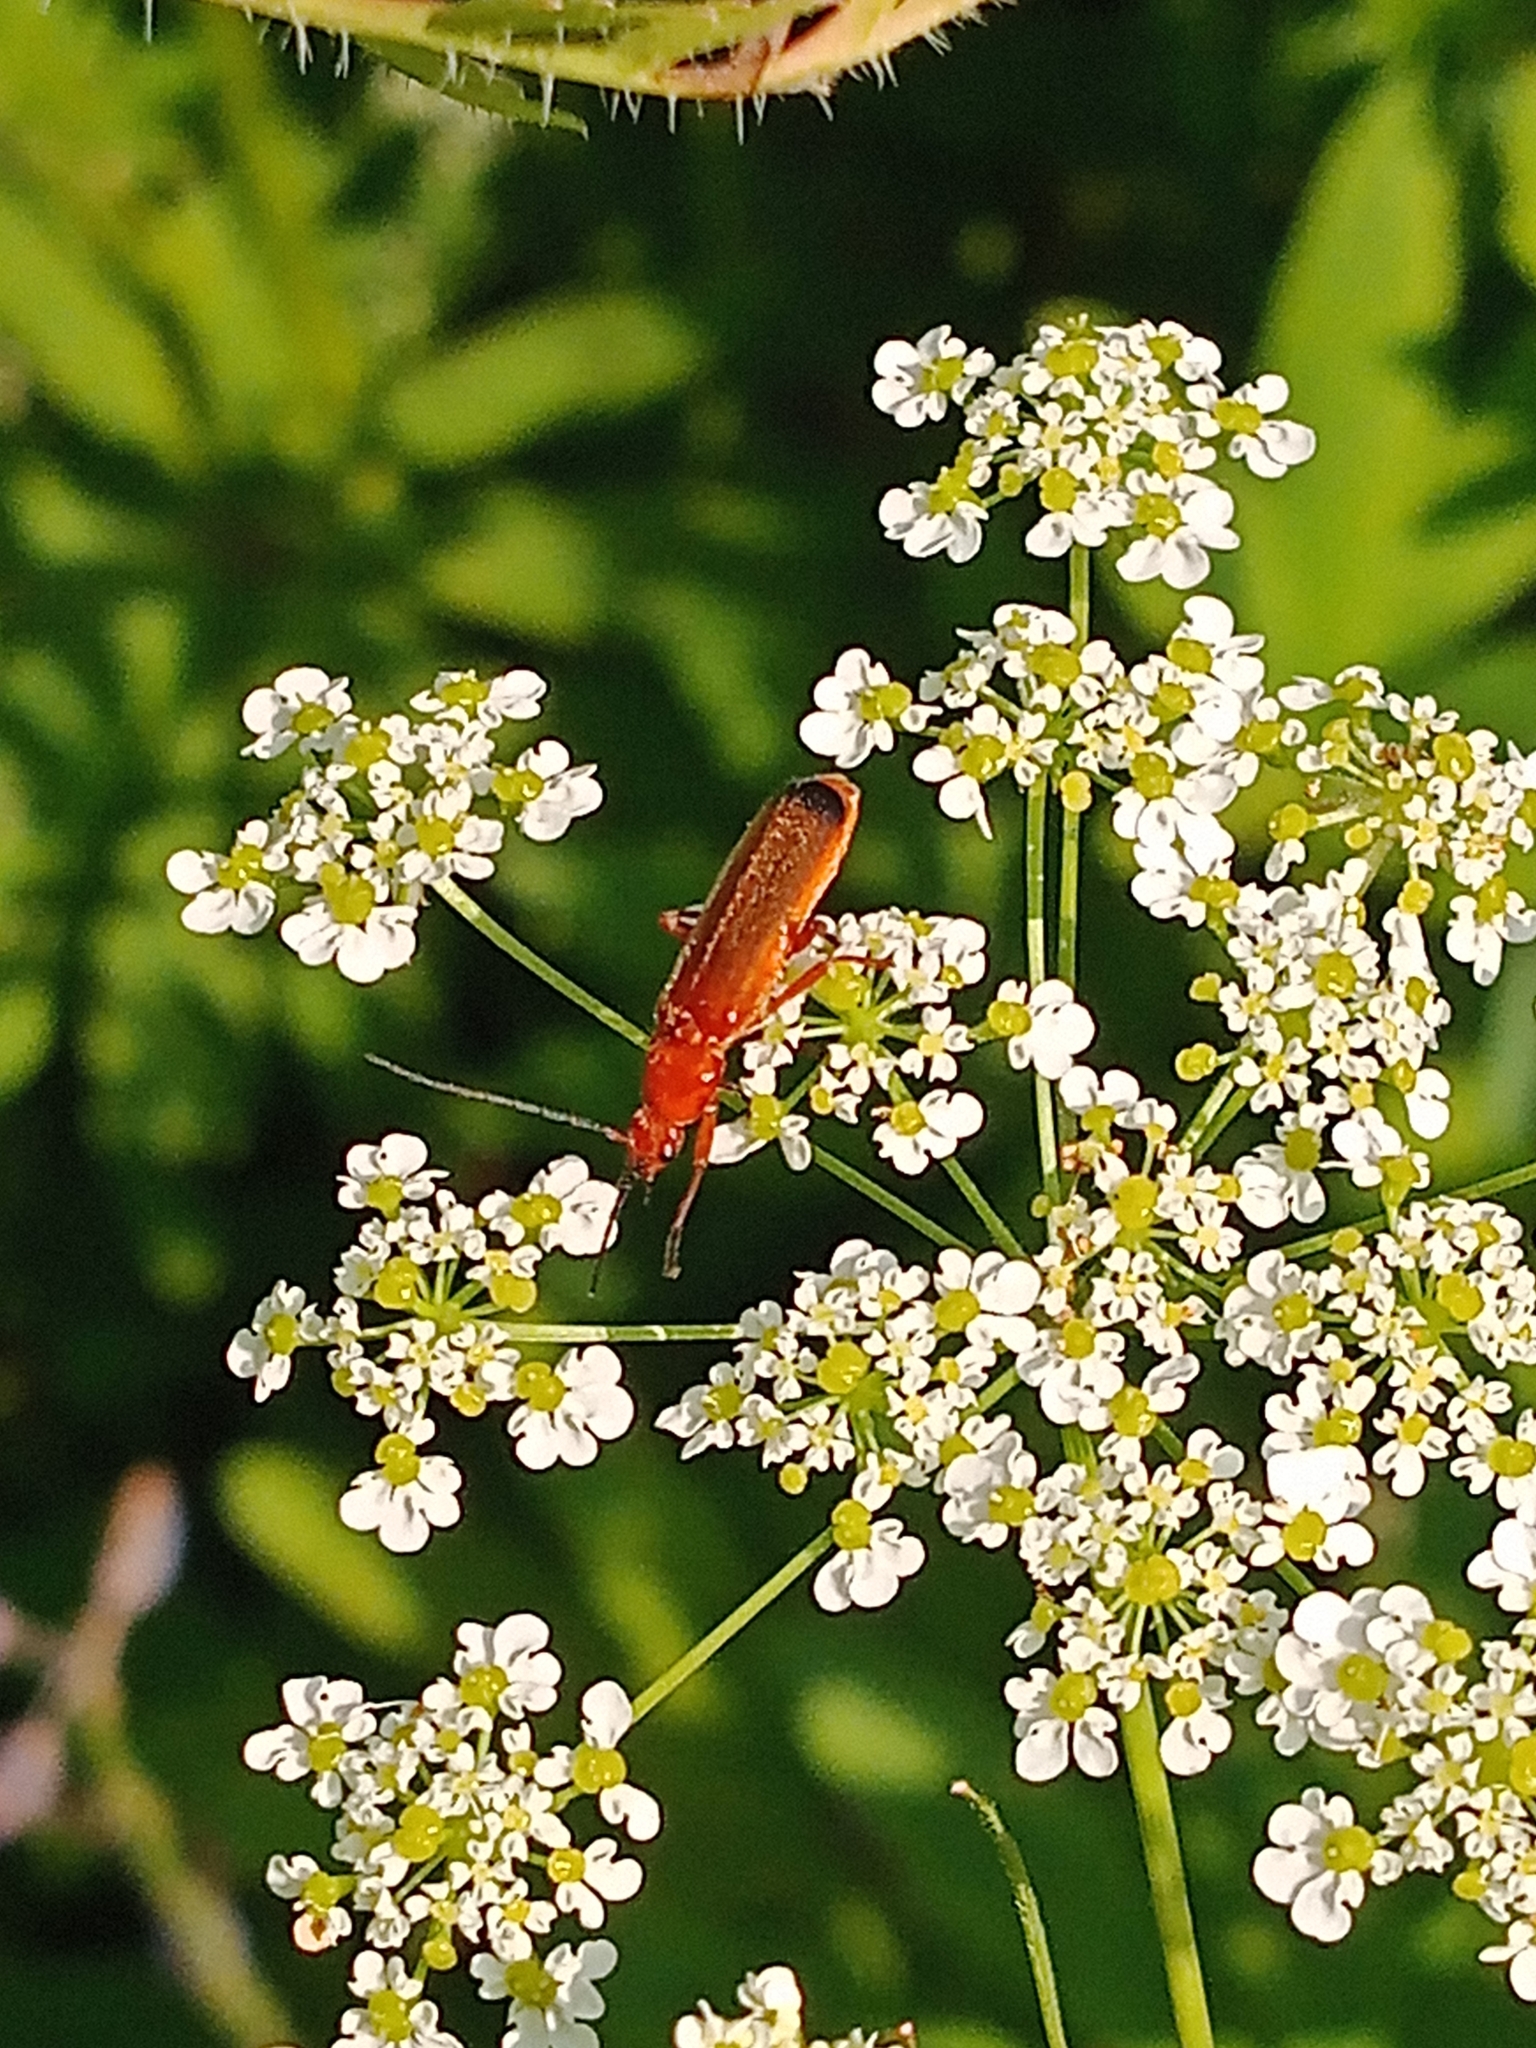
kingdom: Animalia
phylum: Arthropoda
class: Insecta
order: Coleoptera
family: Cantharidae
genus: Rhagonycha
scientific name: Rhagonycha fulva
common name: Common red soldier beetle
